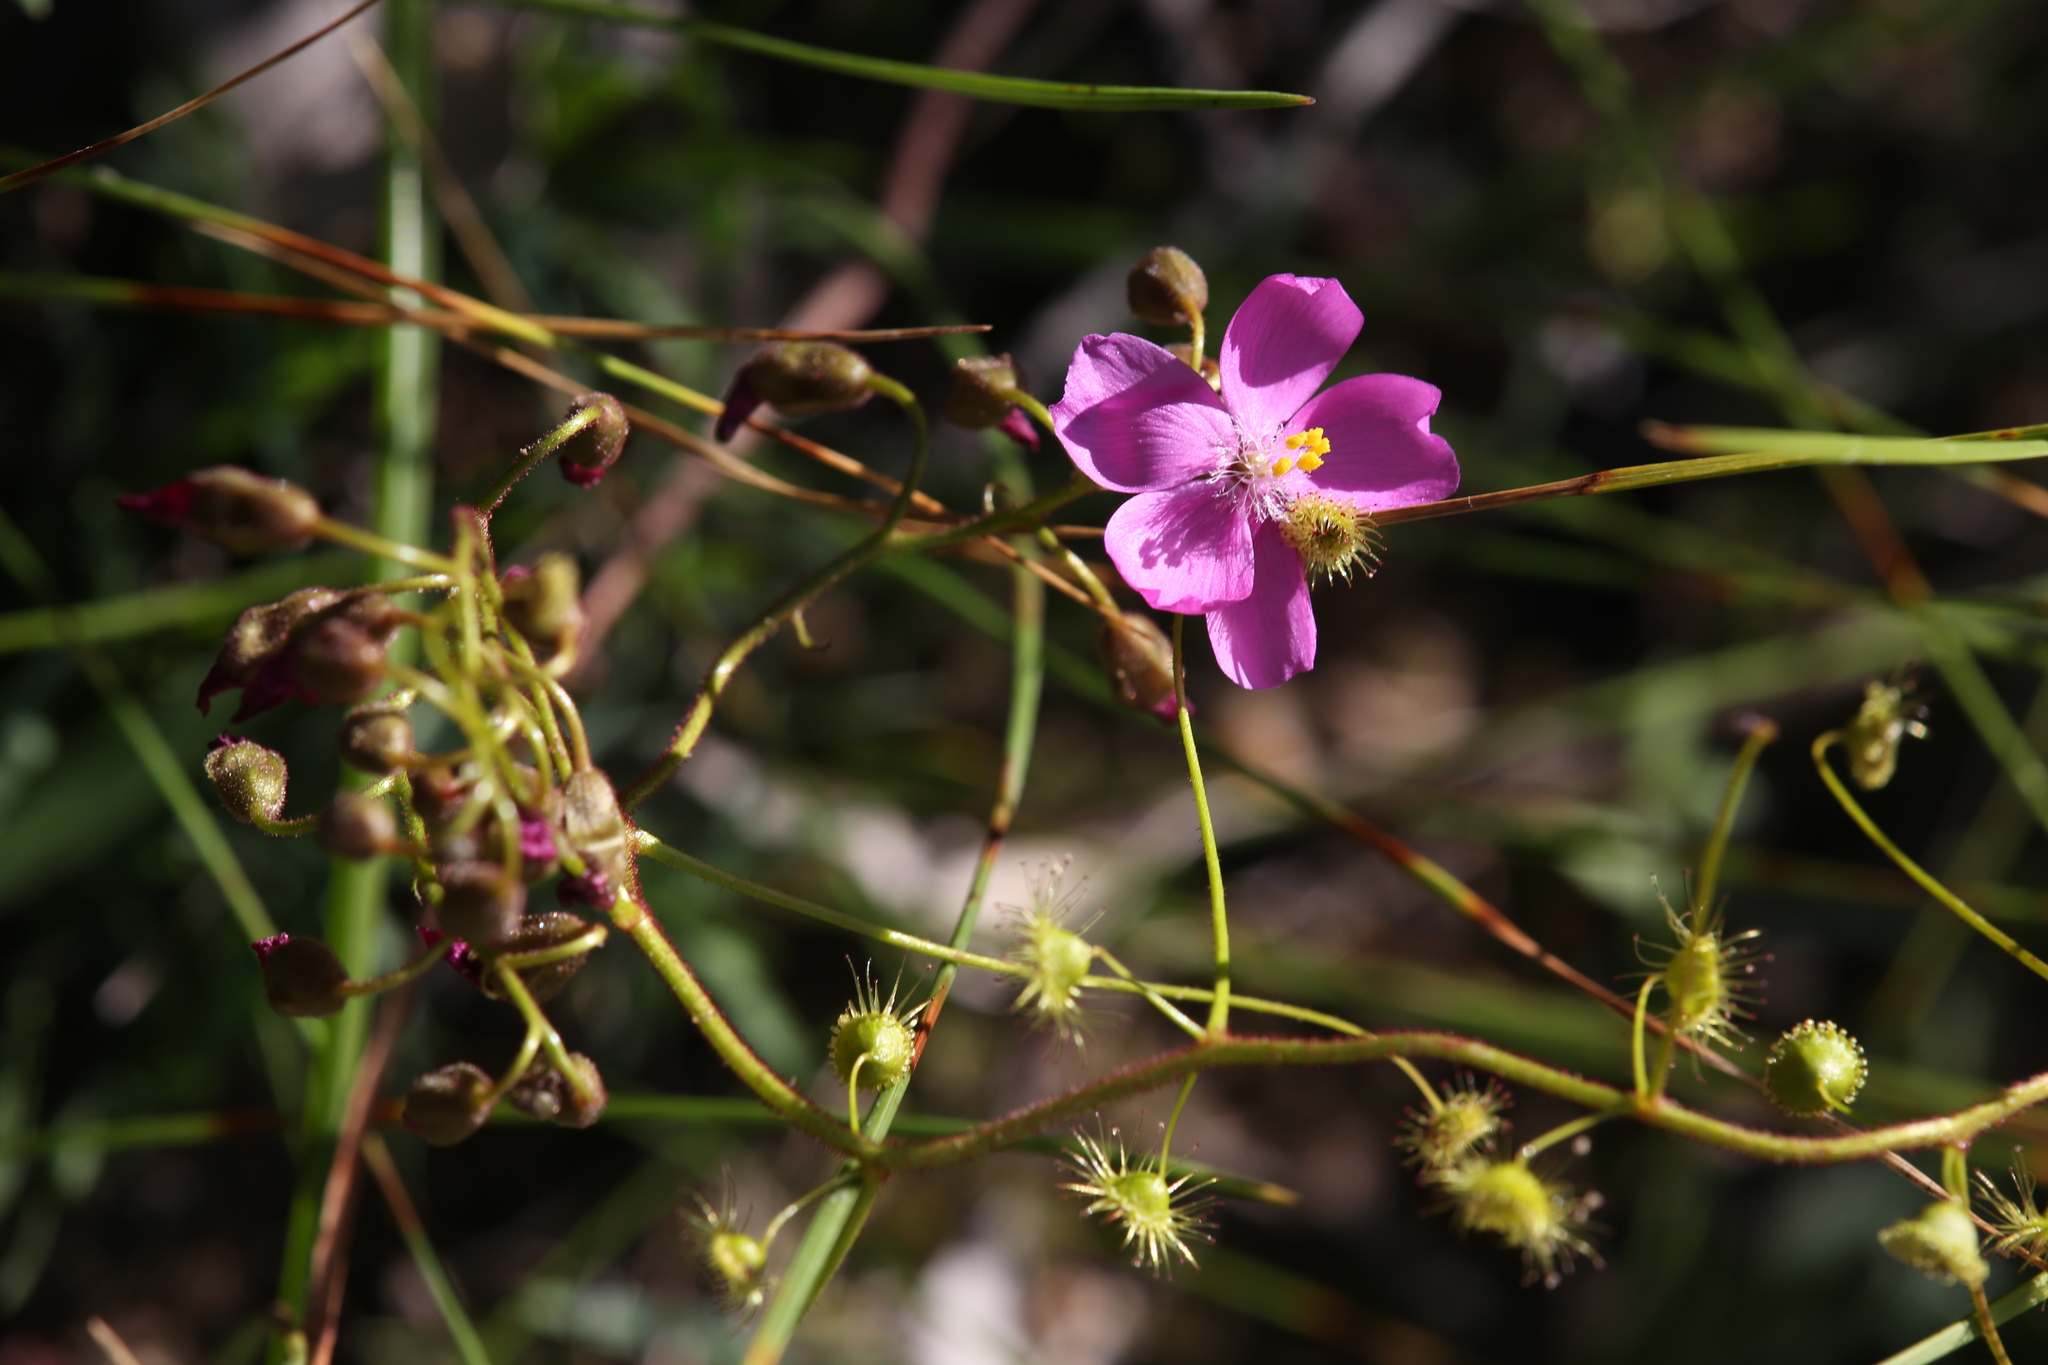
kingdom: Plantae
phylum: Tracheophyta
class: Magnoliopsida
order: Caryophyllales
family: Droseraceae
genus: Drosera
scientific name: Drosera stricticaulis
